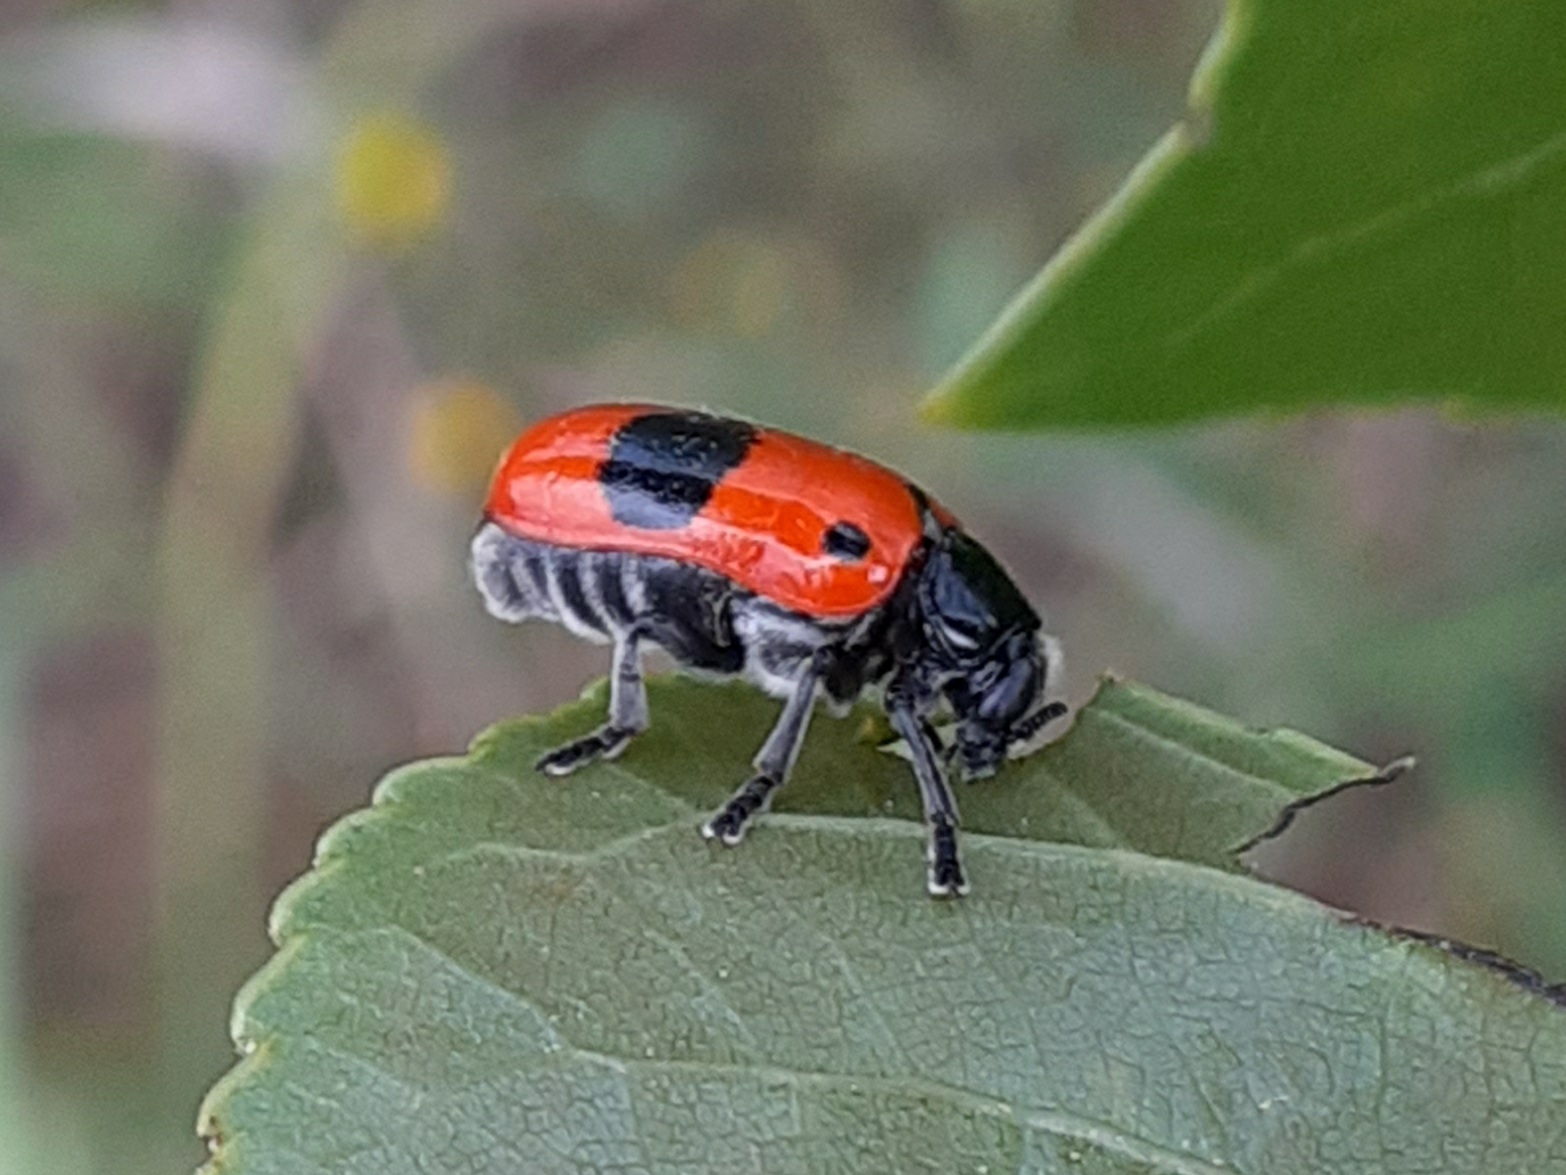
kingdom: Animalia
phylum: Arthropoda
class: Insecta
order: Coleoptera
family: Chrysomelidae
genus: Clytra
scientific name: Clytra laeviuscula
